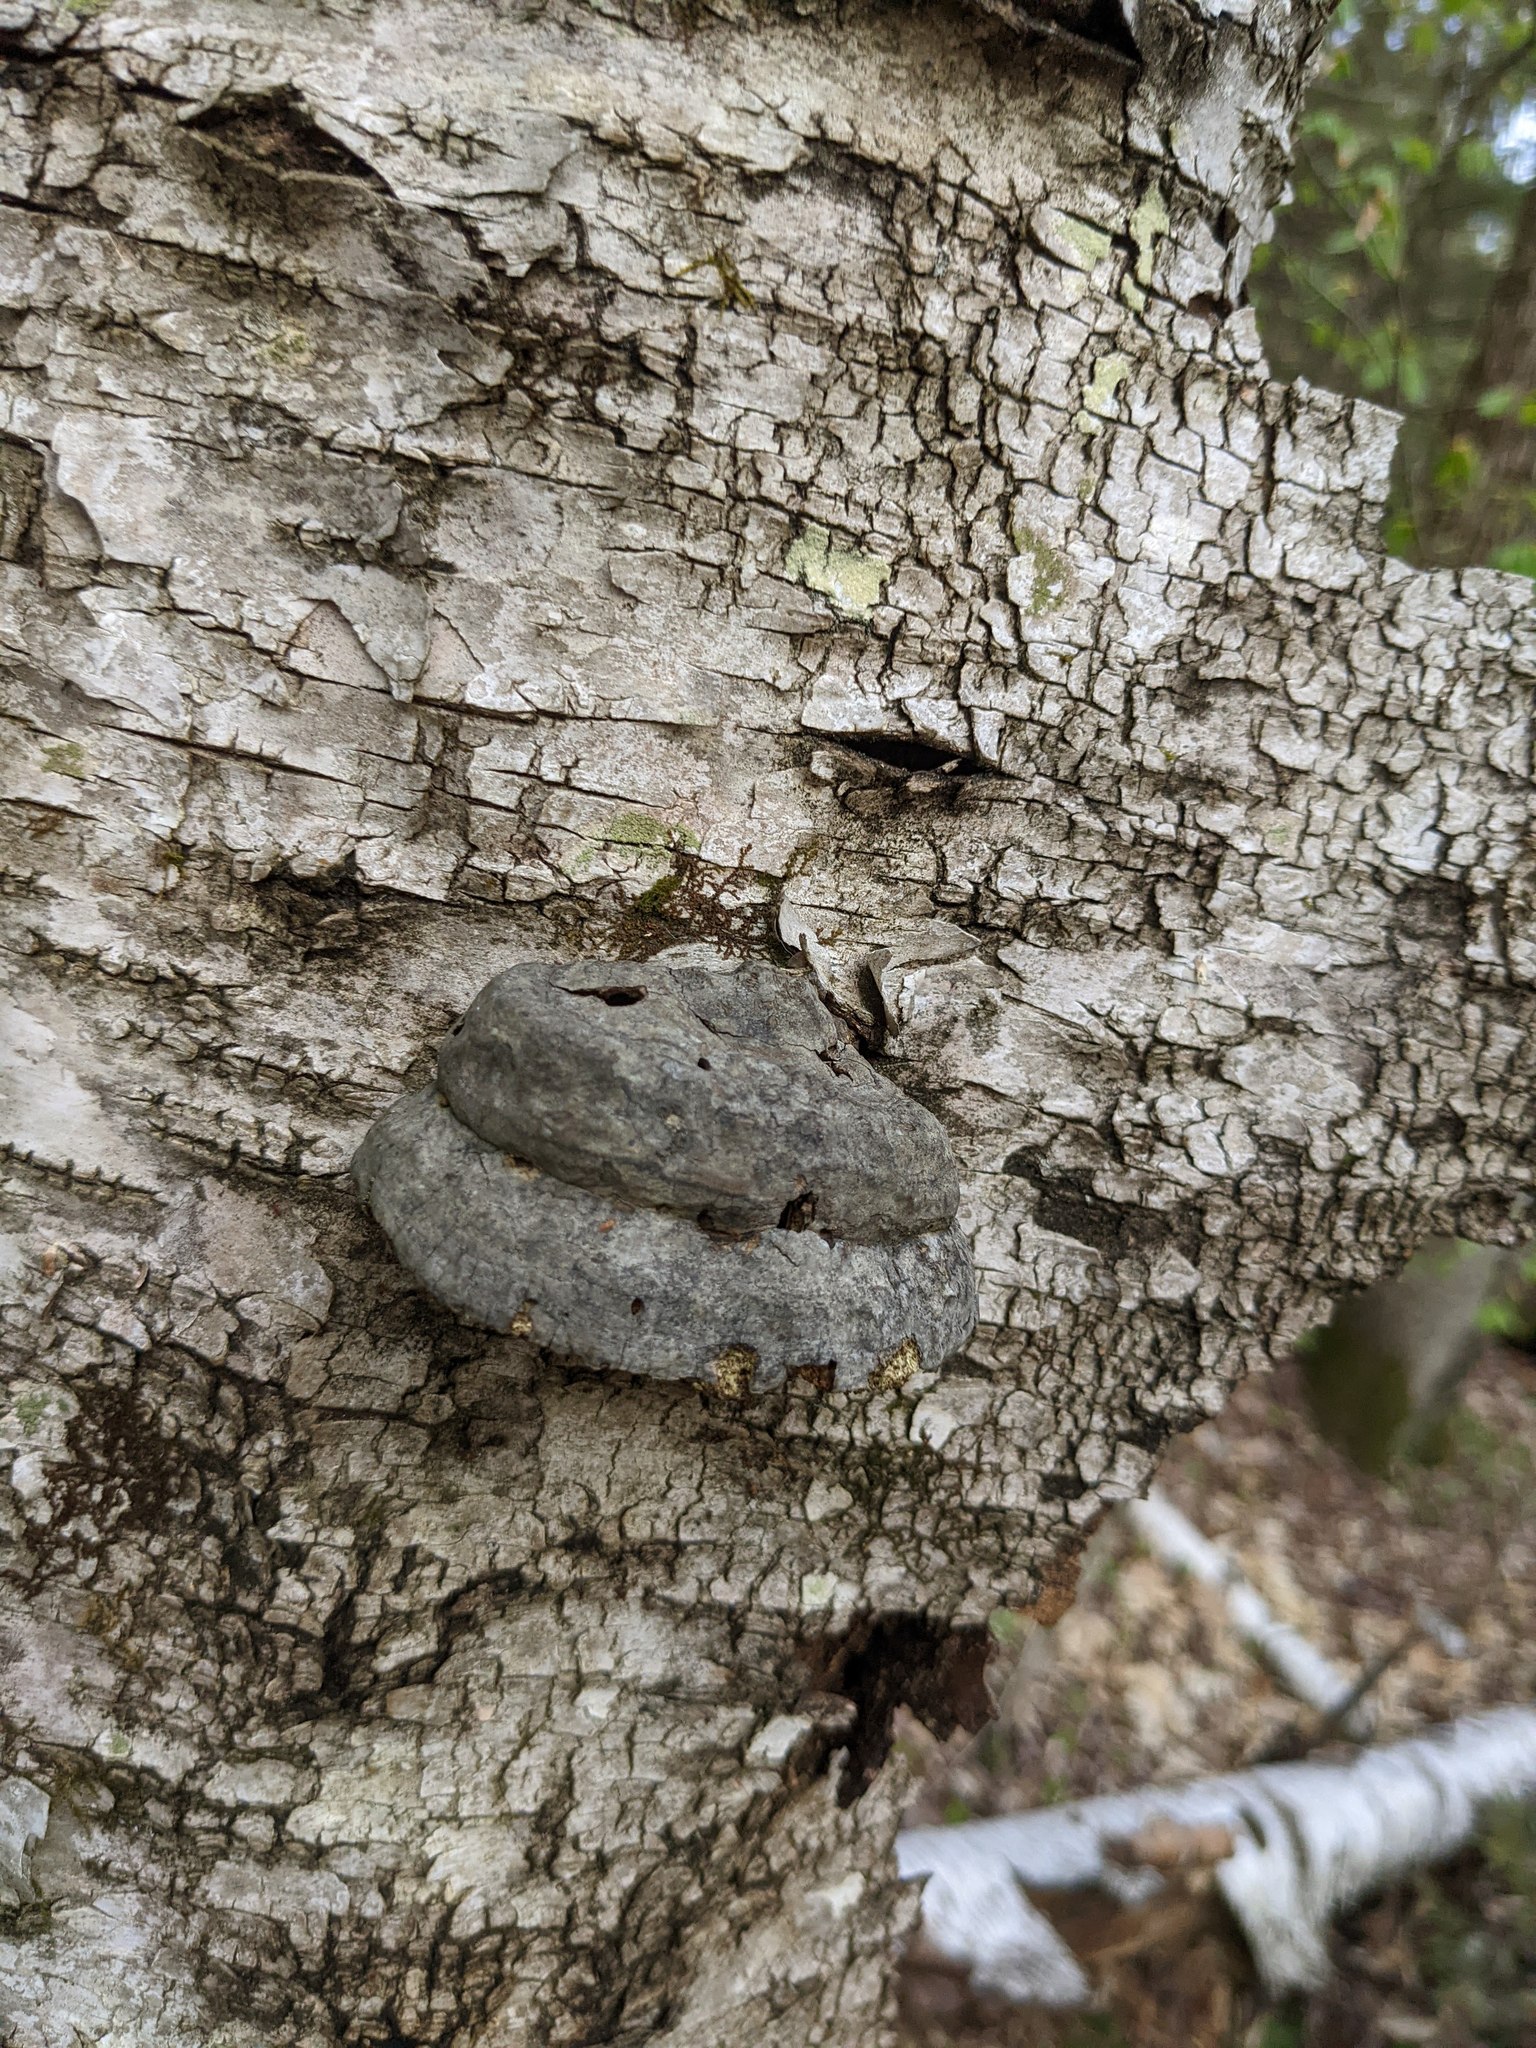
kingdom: Fungi
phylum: Basidiomycota
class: Agaricomycetes
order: Polyporales
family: Polyporaceae
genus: Fomes
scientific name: Fomes fomentarius
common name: Hoof fungus
